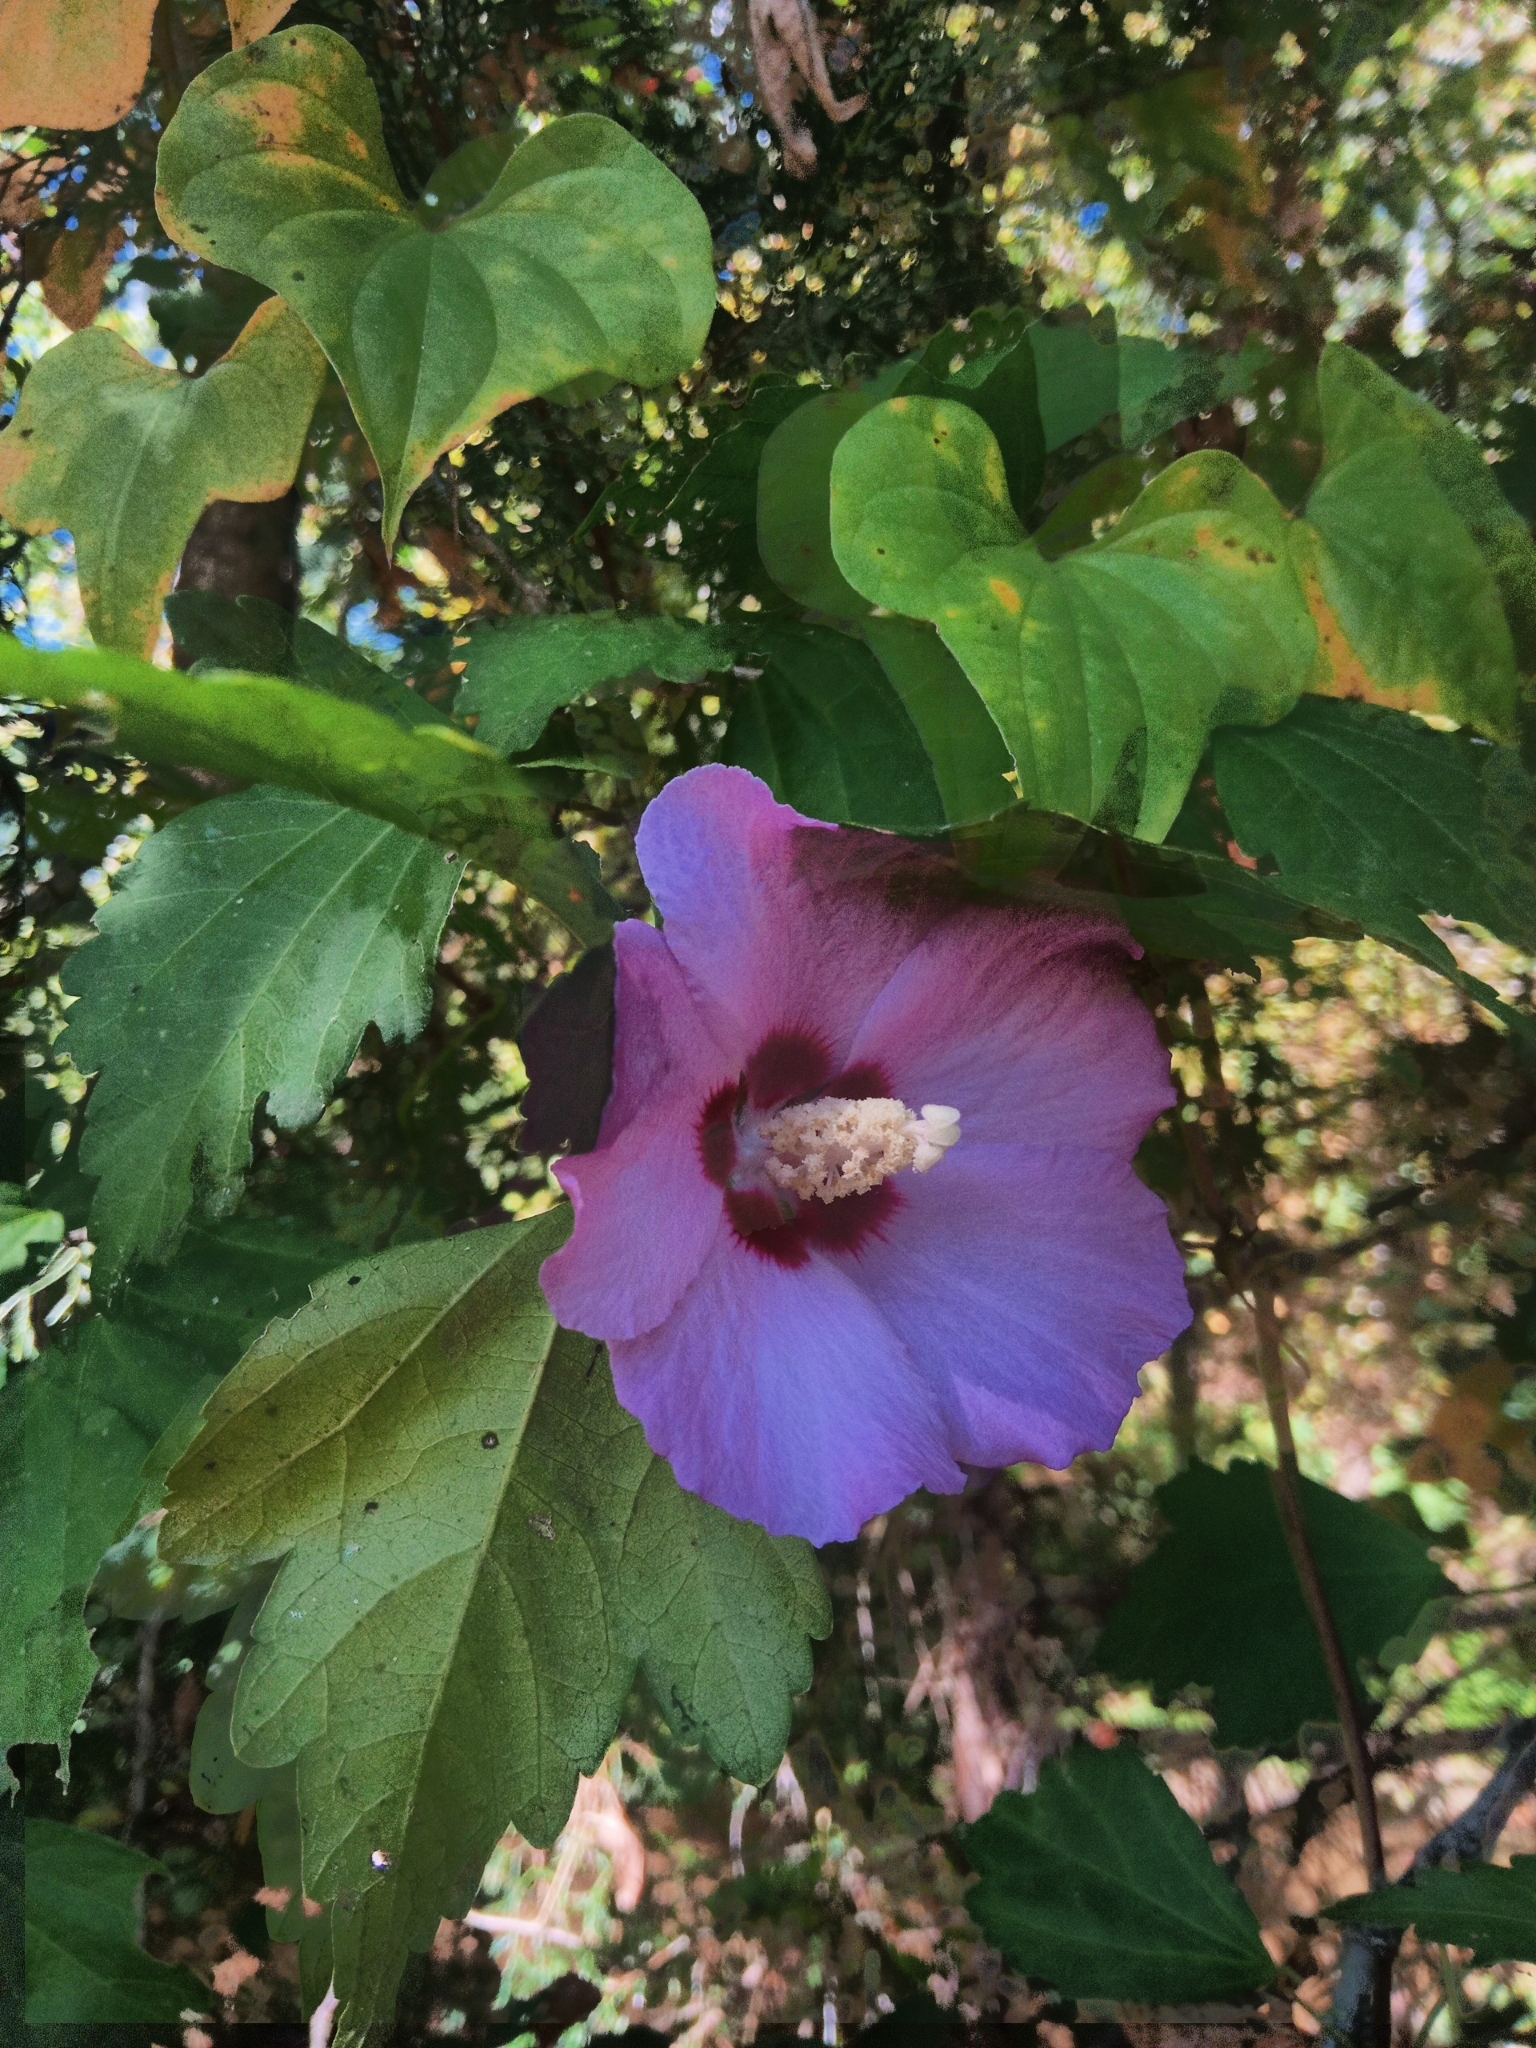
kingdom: Plantae
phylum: Tracheophyta
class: Magnoliopsida
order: Malvales
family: Malvaceae
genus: Hibiscus
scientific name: Hibiscus syriacus
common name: Syrian ketmia
